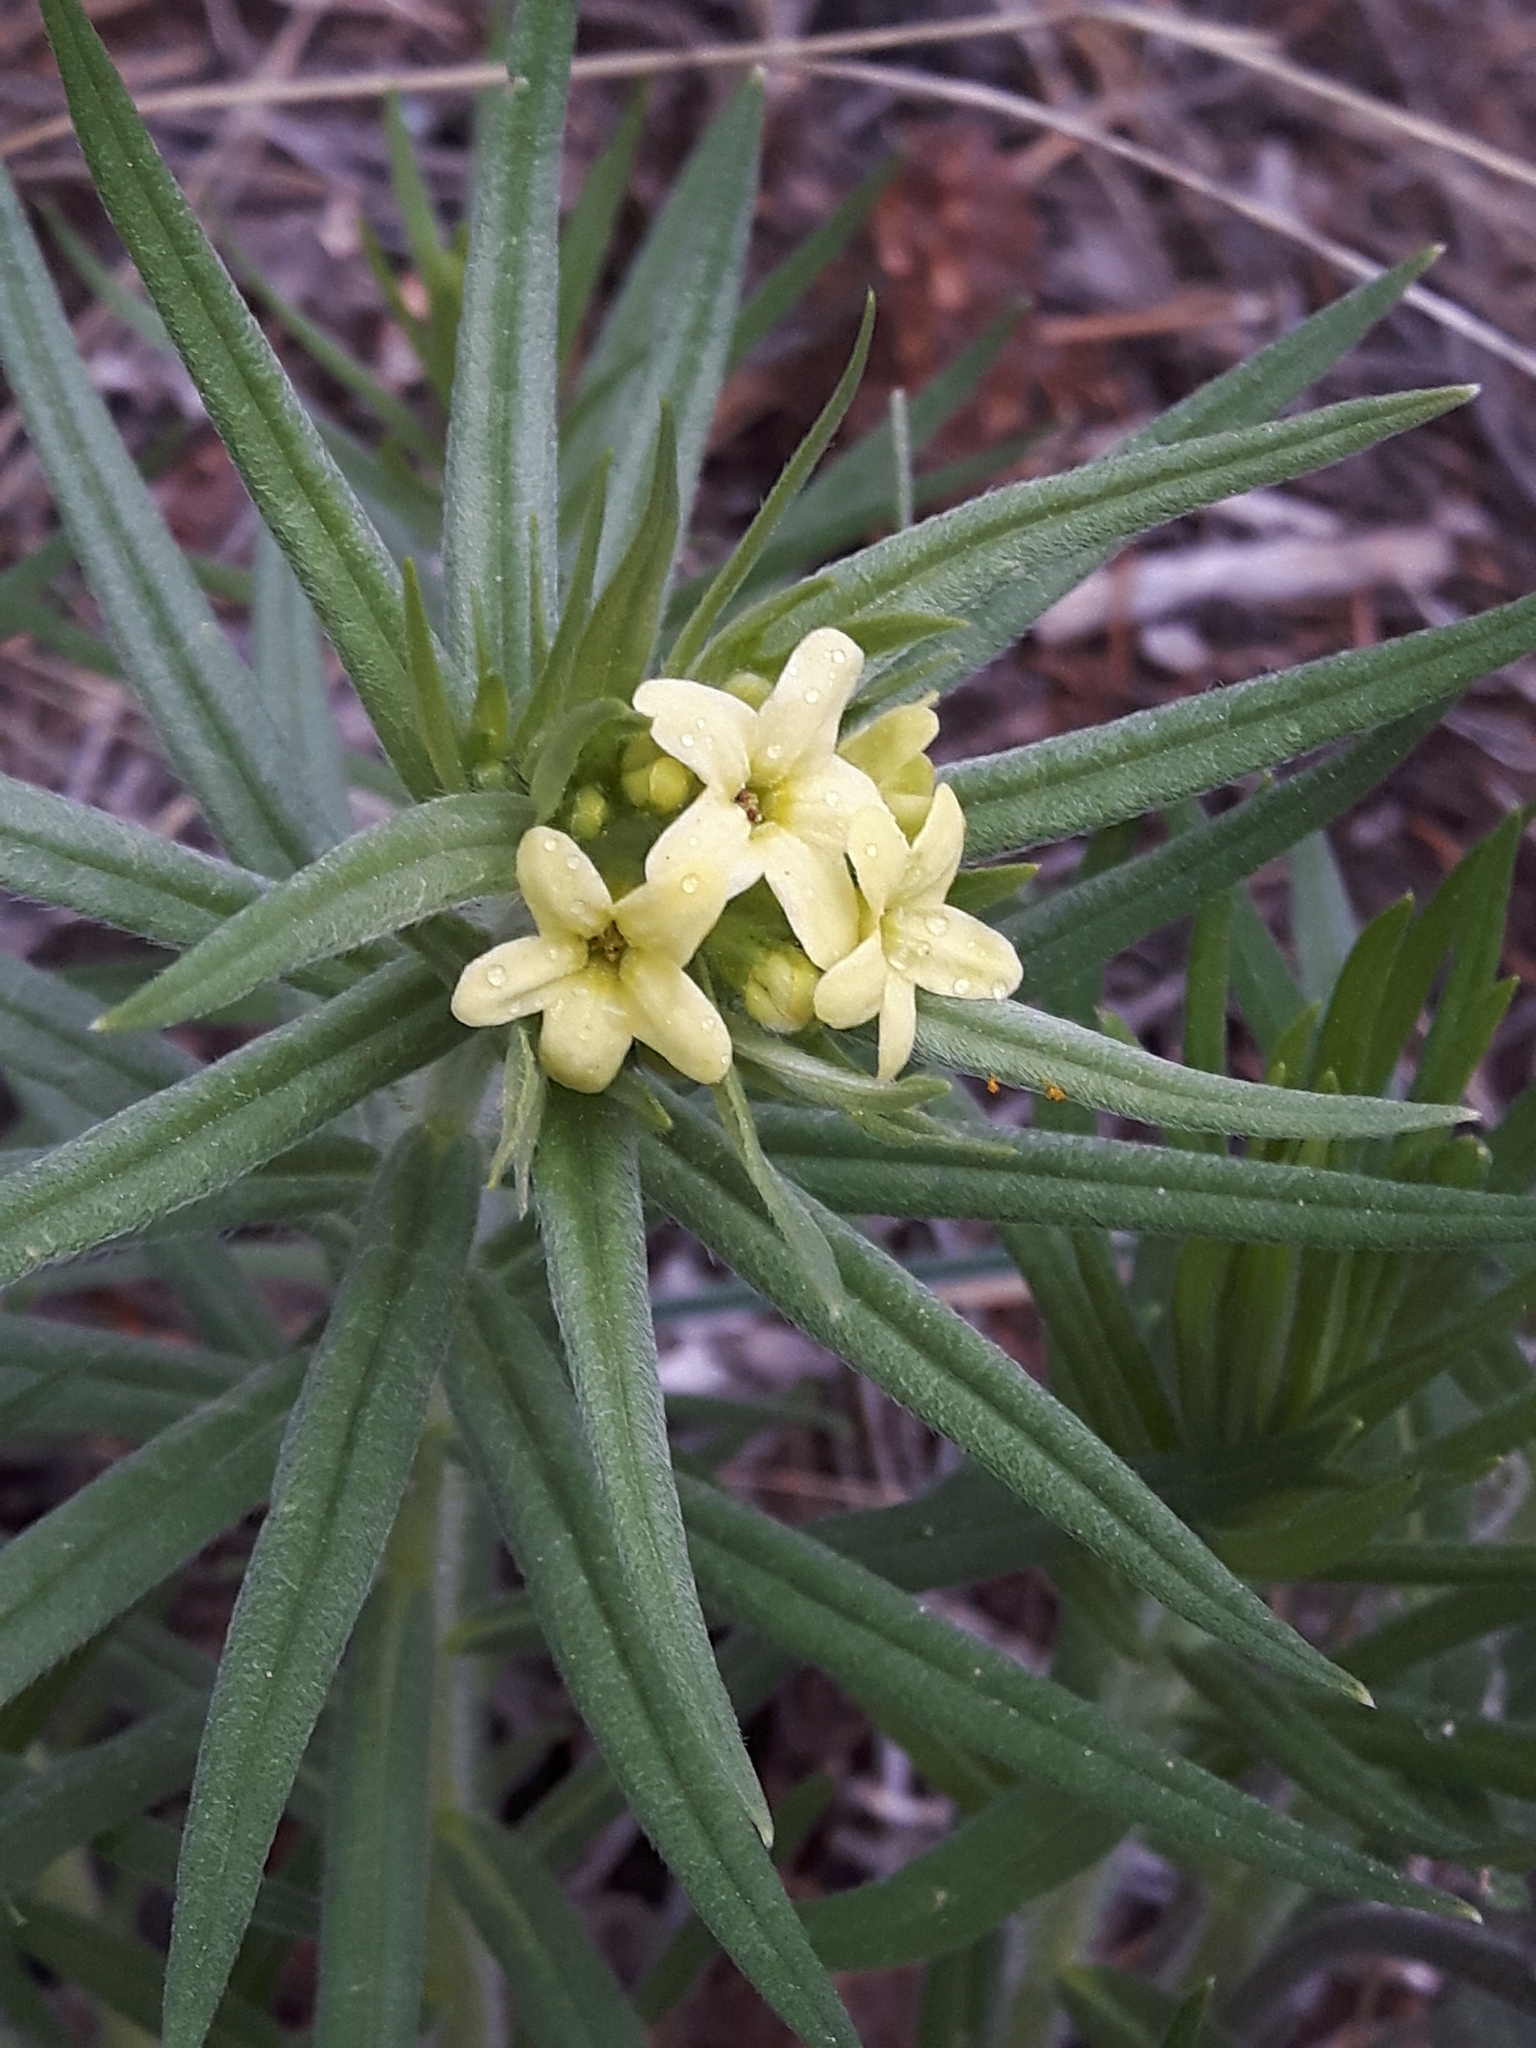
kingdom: Plantae
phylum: Tracheophyta
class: Magnoliopsida
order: Boraginales
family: Boraginaceae
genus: Lithospermum
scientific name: Lithospermum ruderale
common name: Western gromwell
